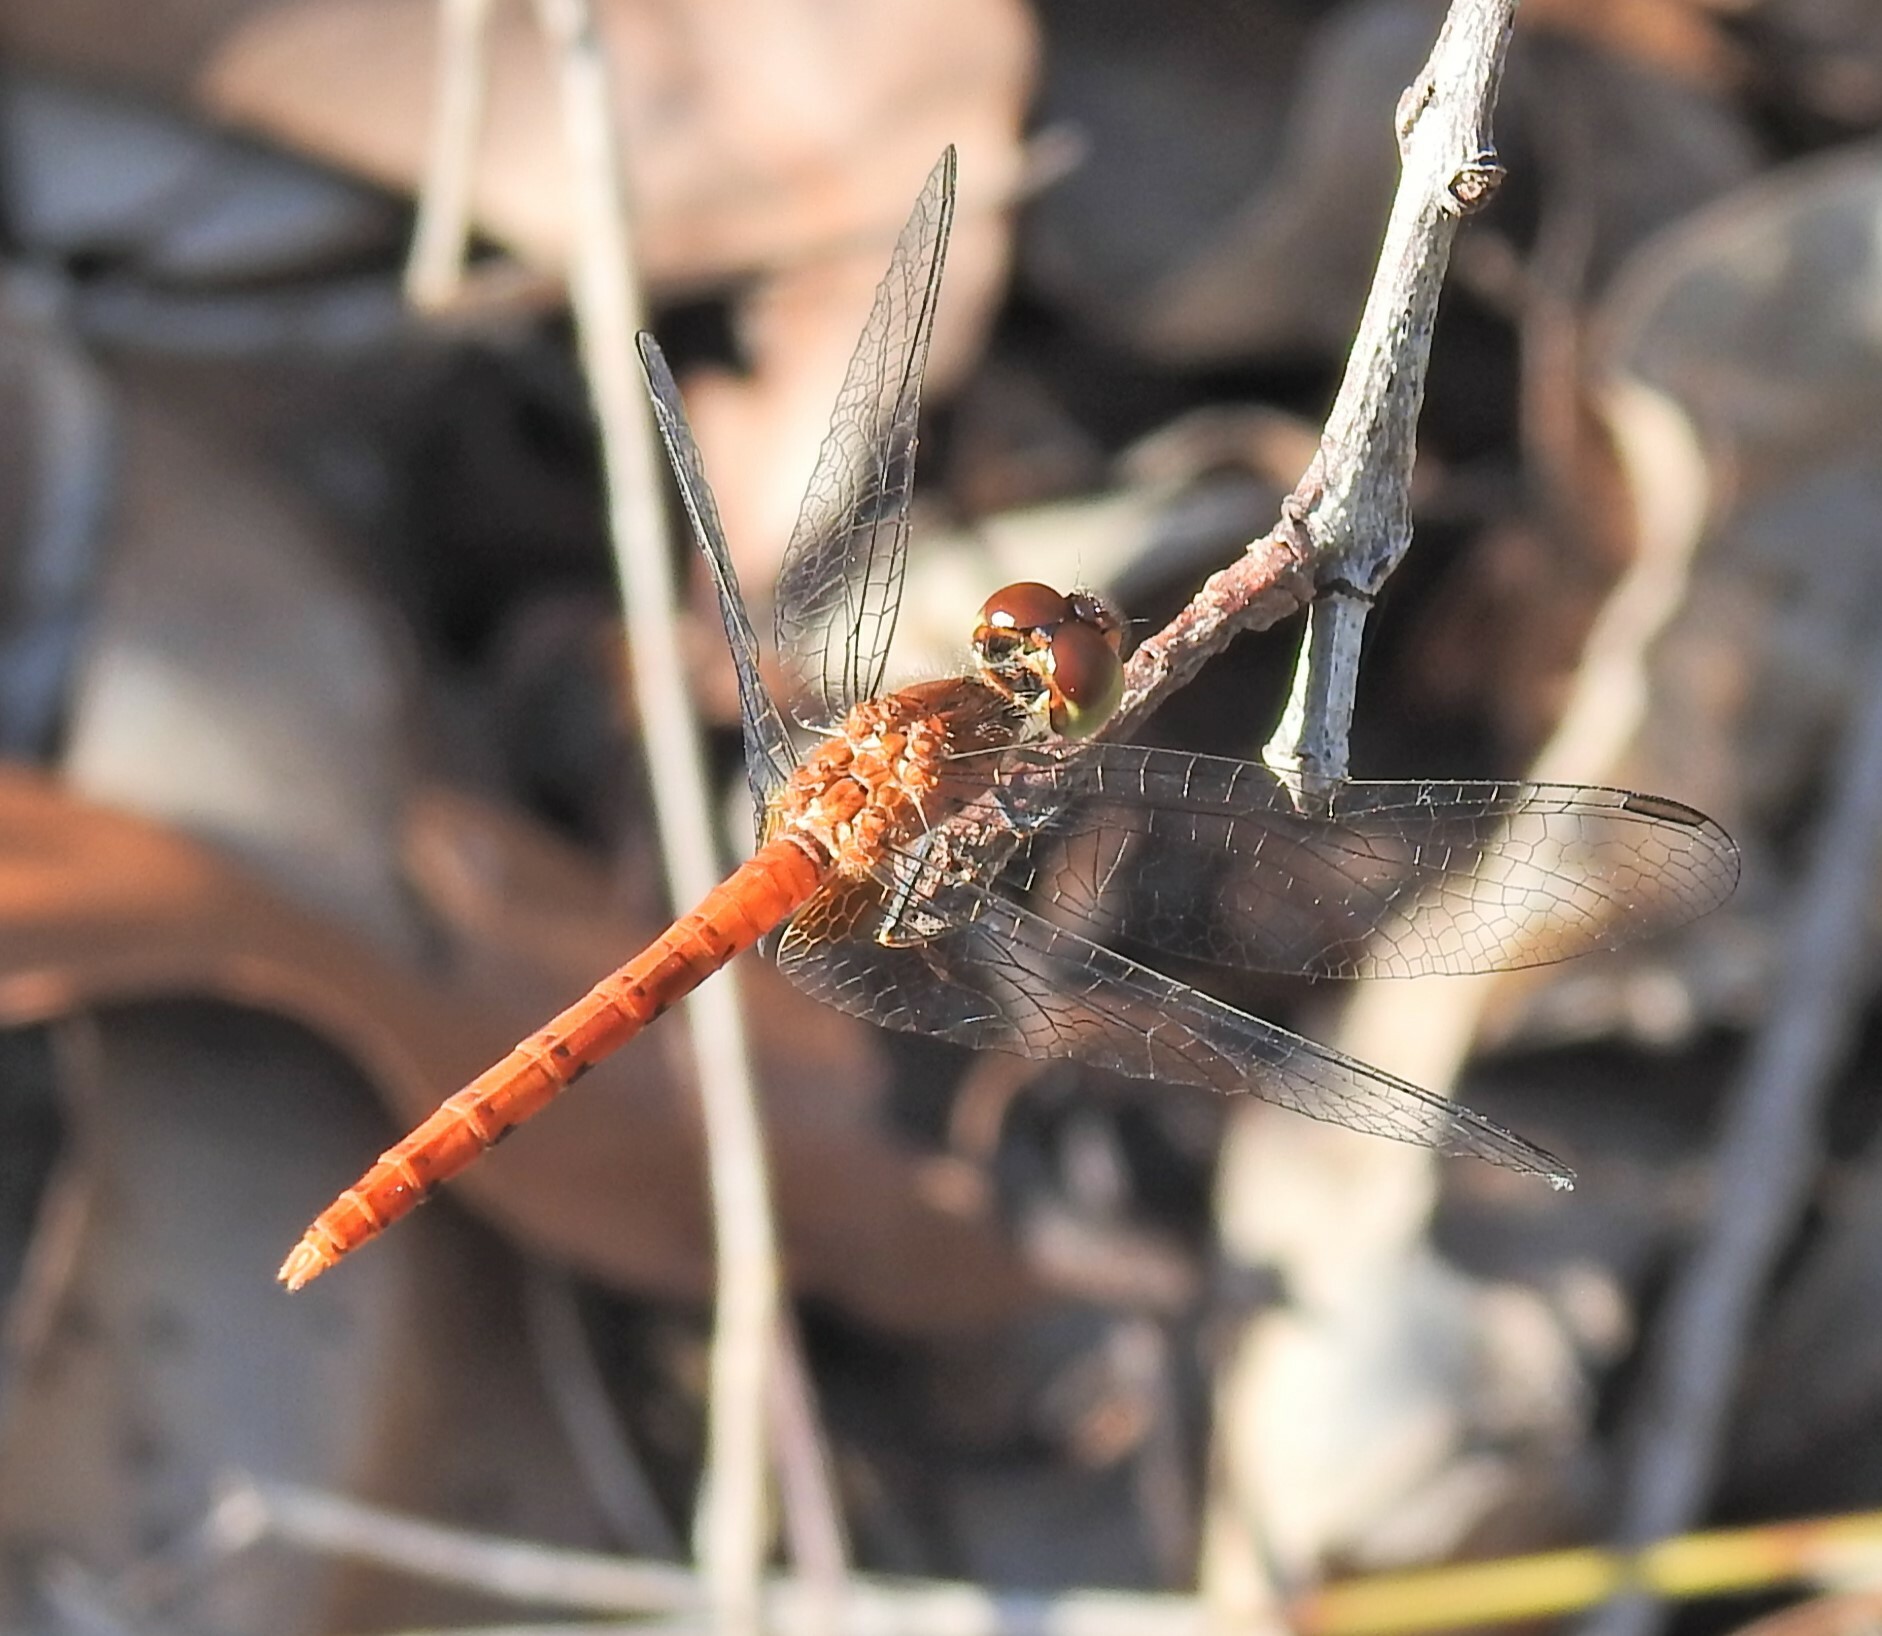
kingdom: Animalia
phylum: Arthropoda
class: Insecta
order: Odonata
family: Libellulidae
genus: Nannodiplax
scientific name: Nannodiplax rubra
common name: Pygmy percher
